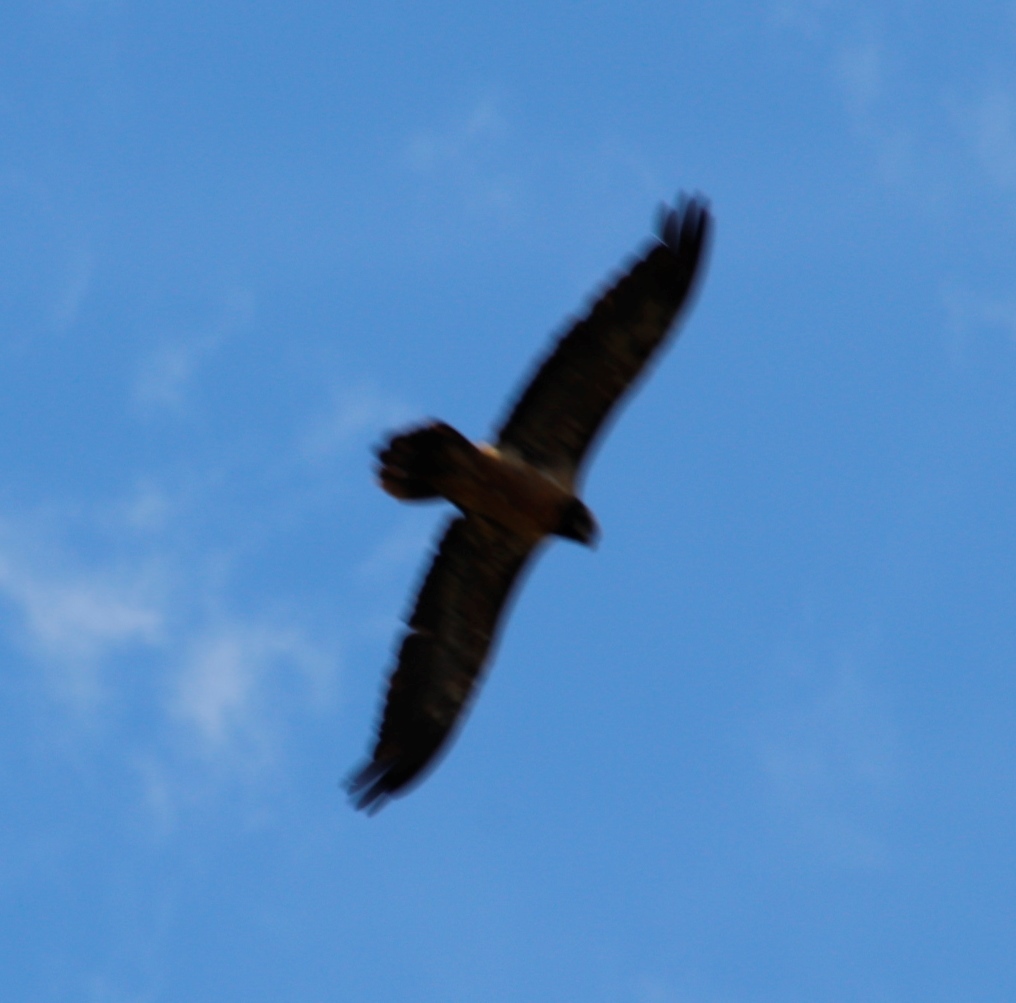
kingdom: Animalia
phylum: Chordata
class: Aves
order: Accipitriformes
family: Accipitridae
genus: Gypaetus
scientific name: Gypaetus barbatus
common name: Bearded vulture
